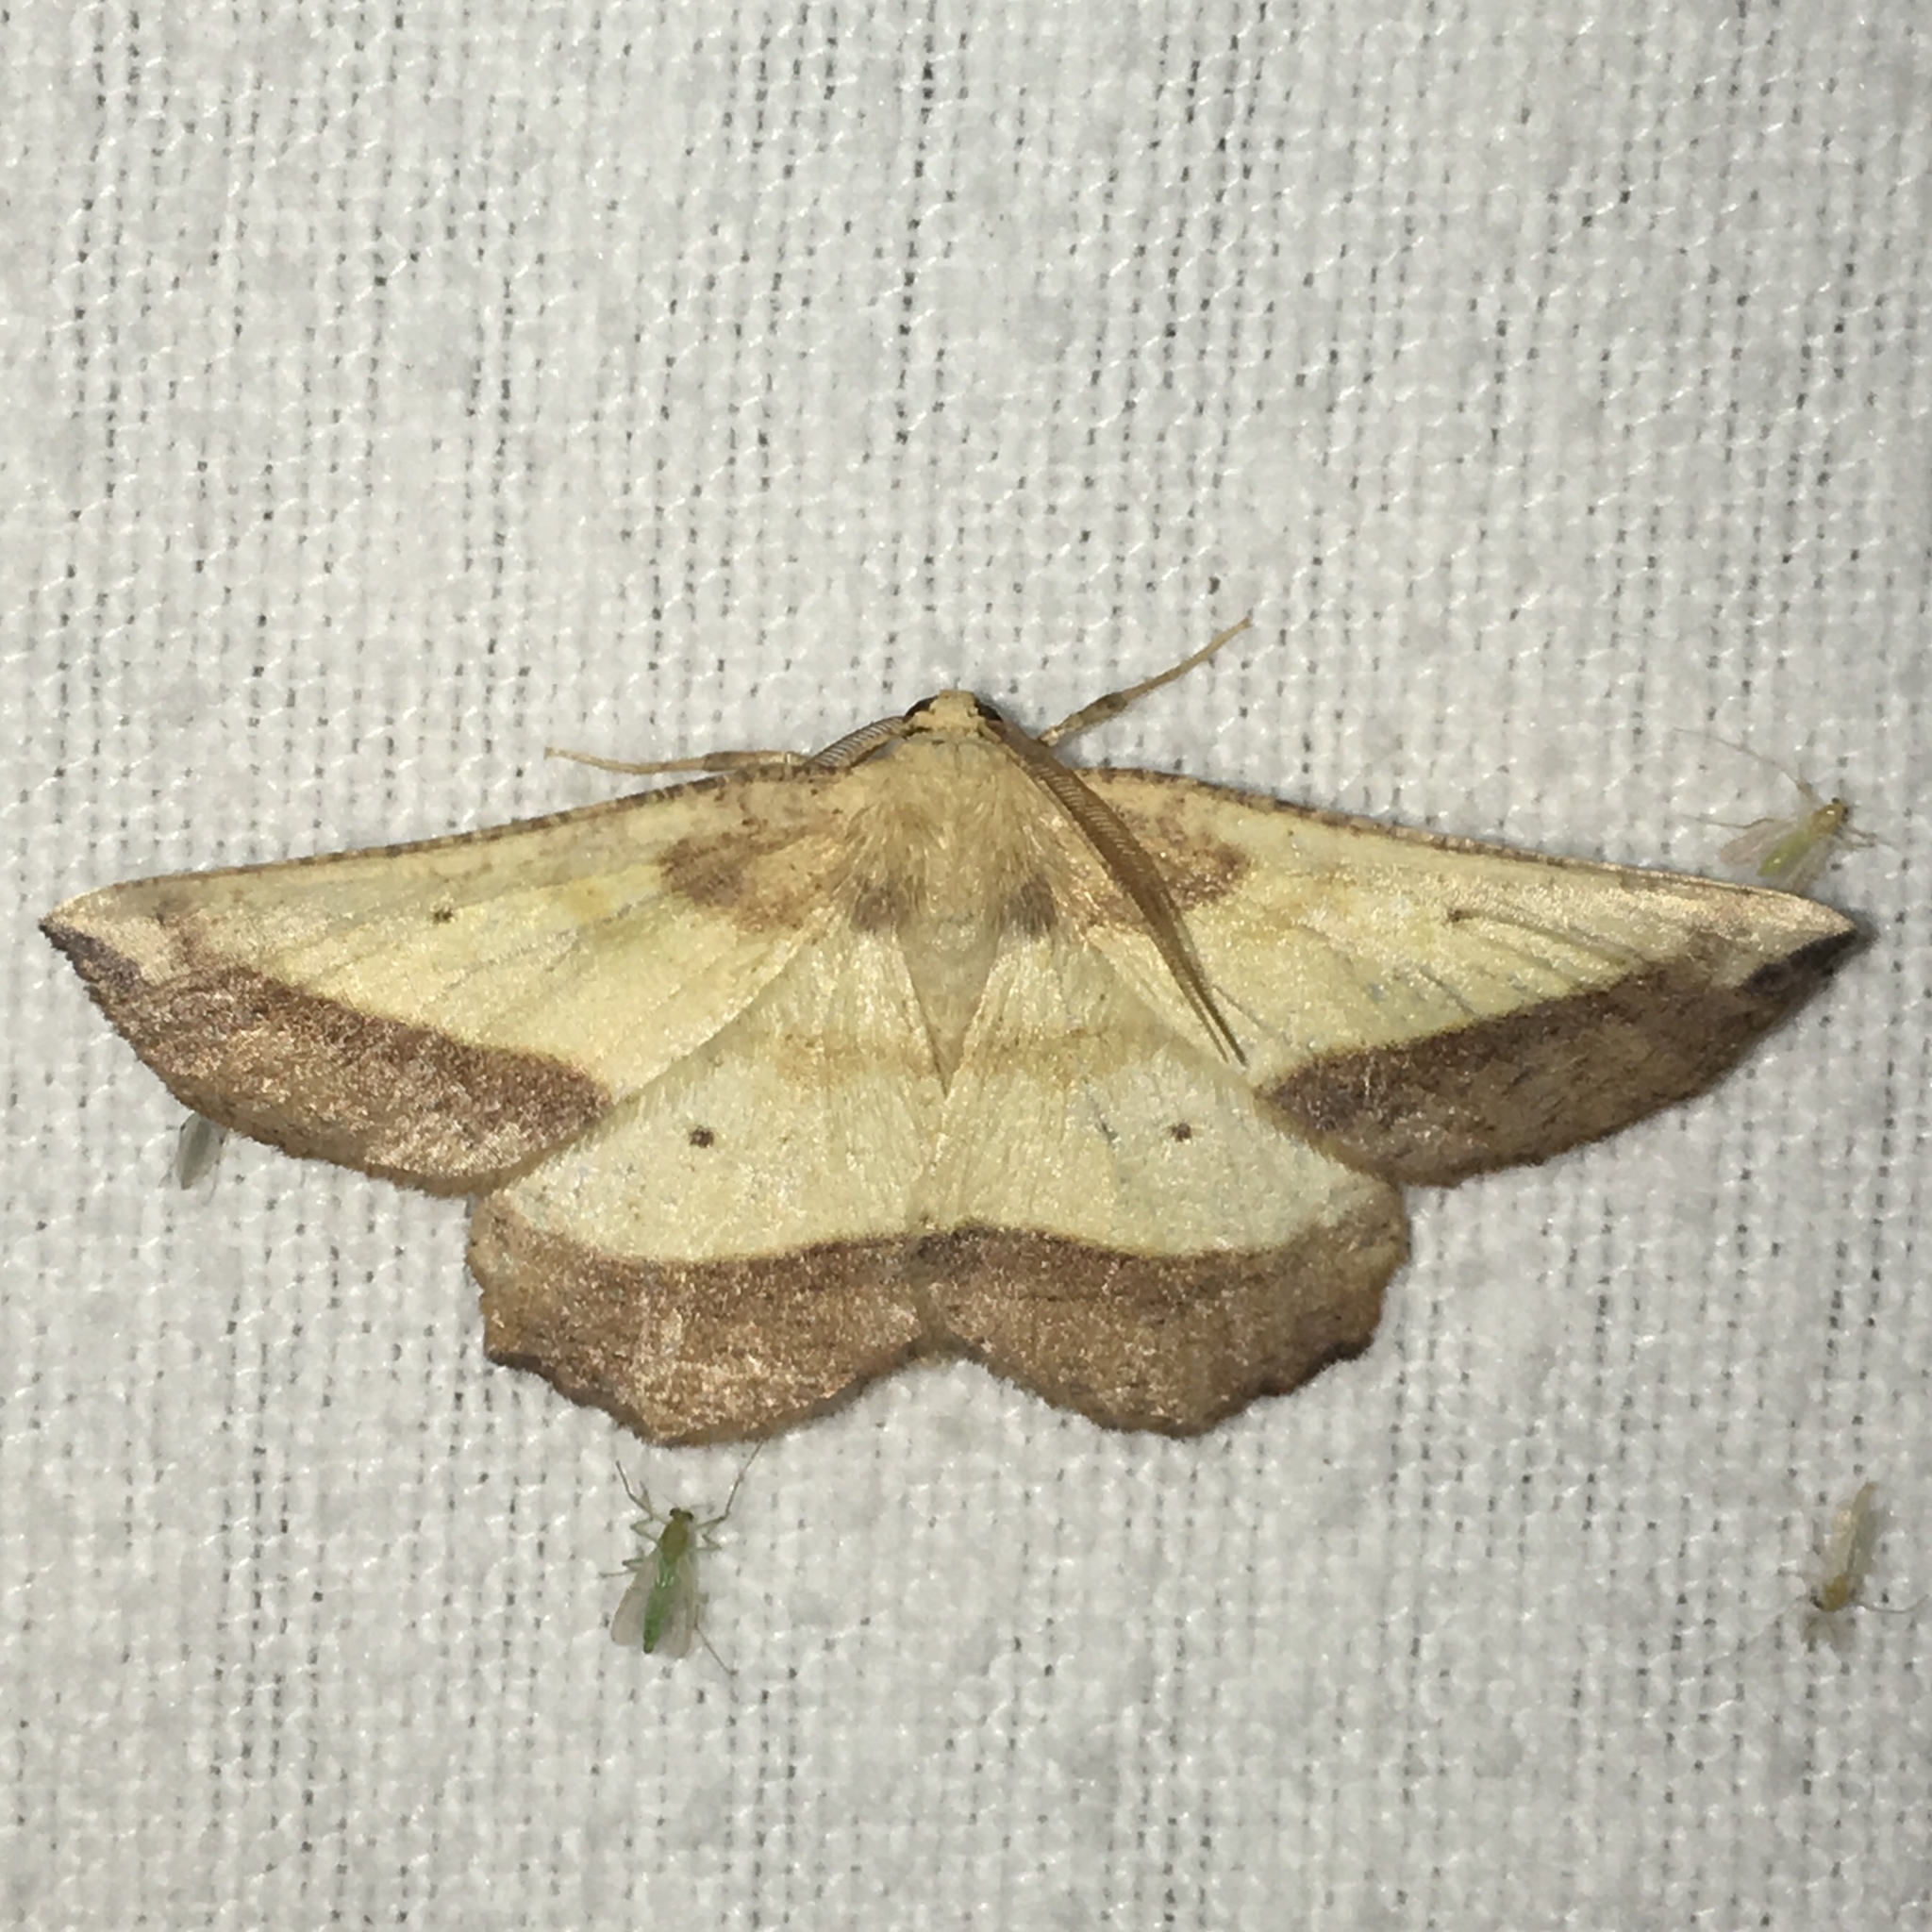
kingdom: Animalia
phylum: Arthropoda
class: Insecta
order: Lepidoptera
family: Geometridae
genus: Euchlaena
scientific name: Euchlaena serrata
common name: Saw wing
